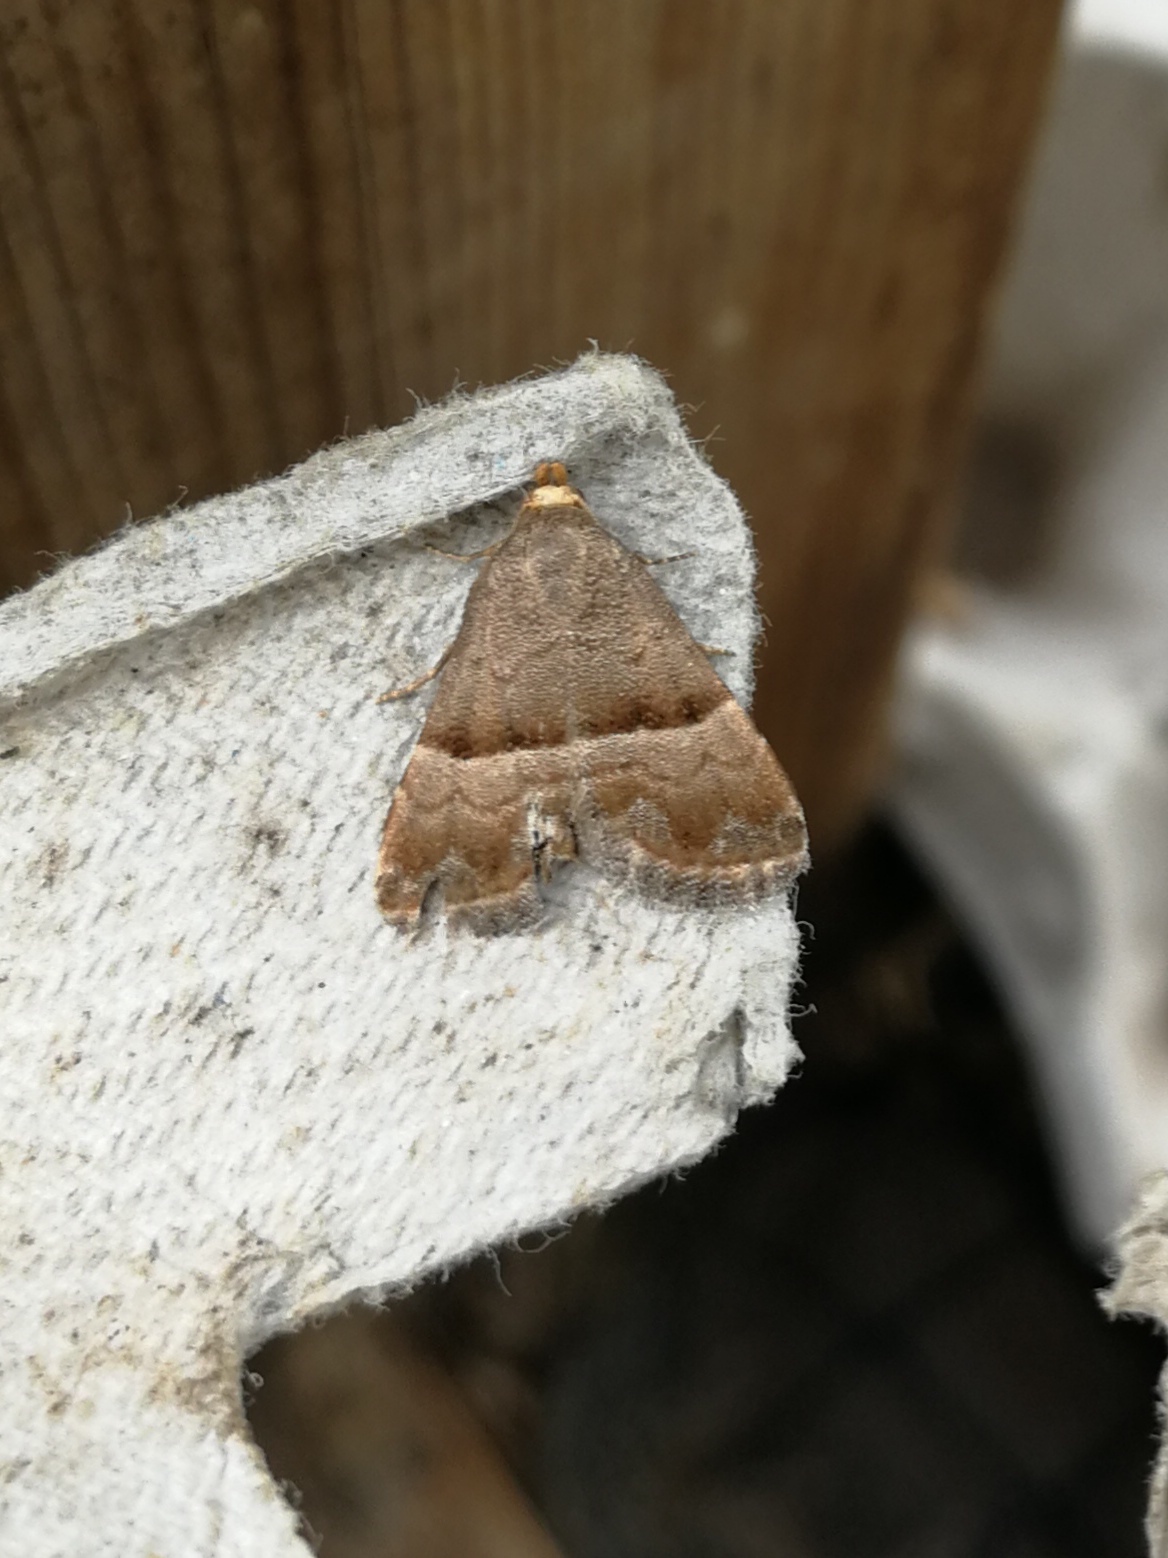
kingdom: Animalia
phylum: Arthropoda
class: Insecta
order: Lepidoptera
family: Noctuidae
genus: Odice
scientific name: Odice jucunda
